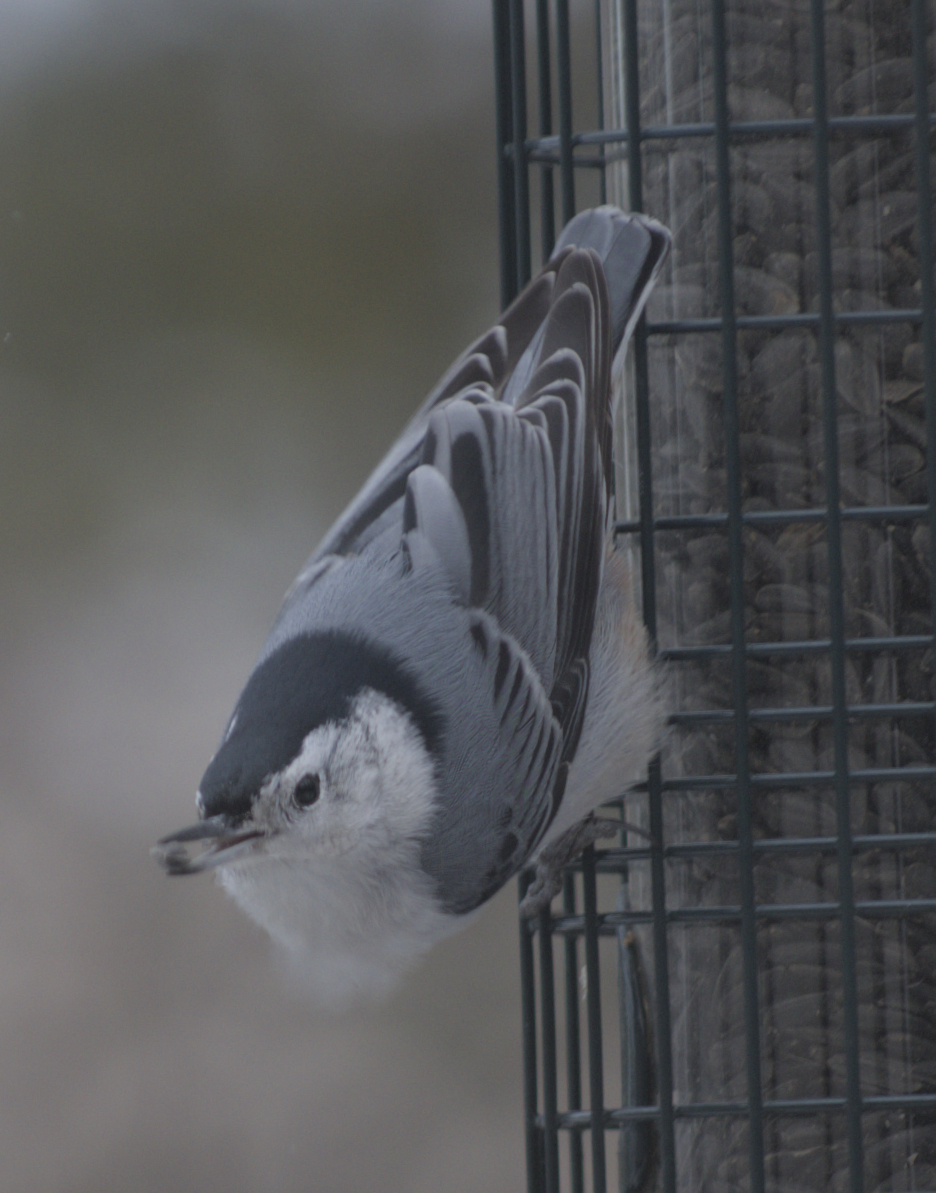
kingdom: Animalia
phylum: Chordata
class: Aves
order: Passeriformes
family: Sittidae
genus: Sitta
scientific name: Sitta carolinensis
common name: White-breasted nuthatch
